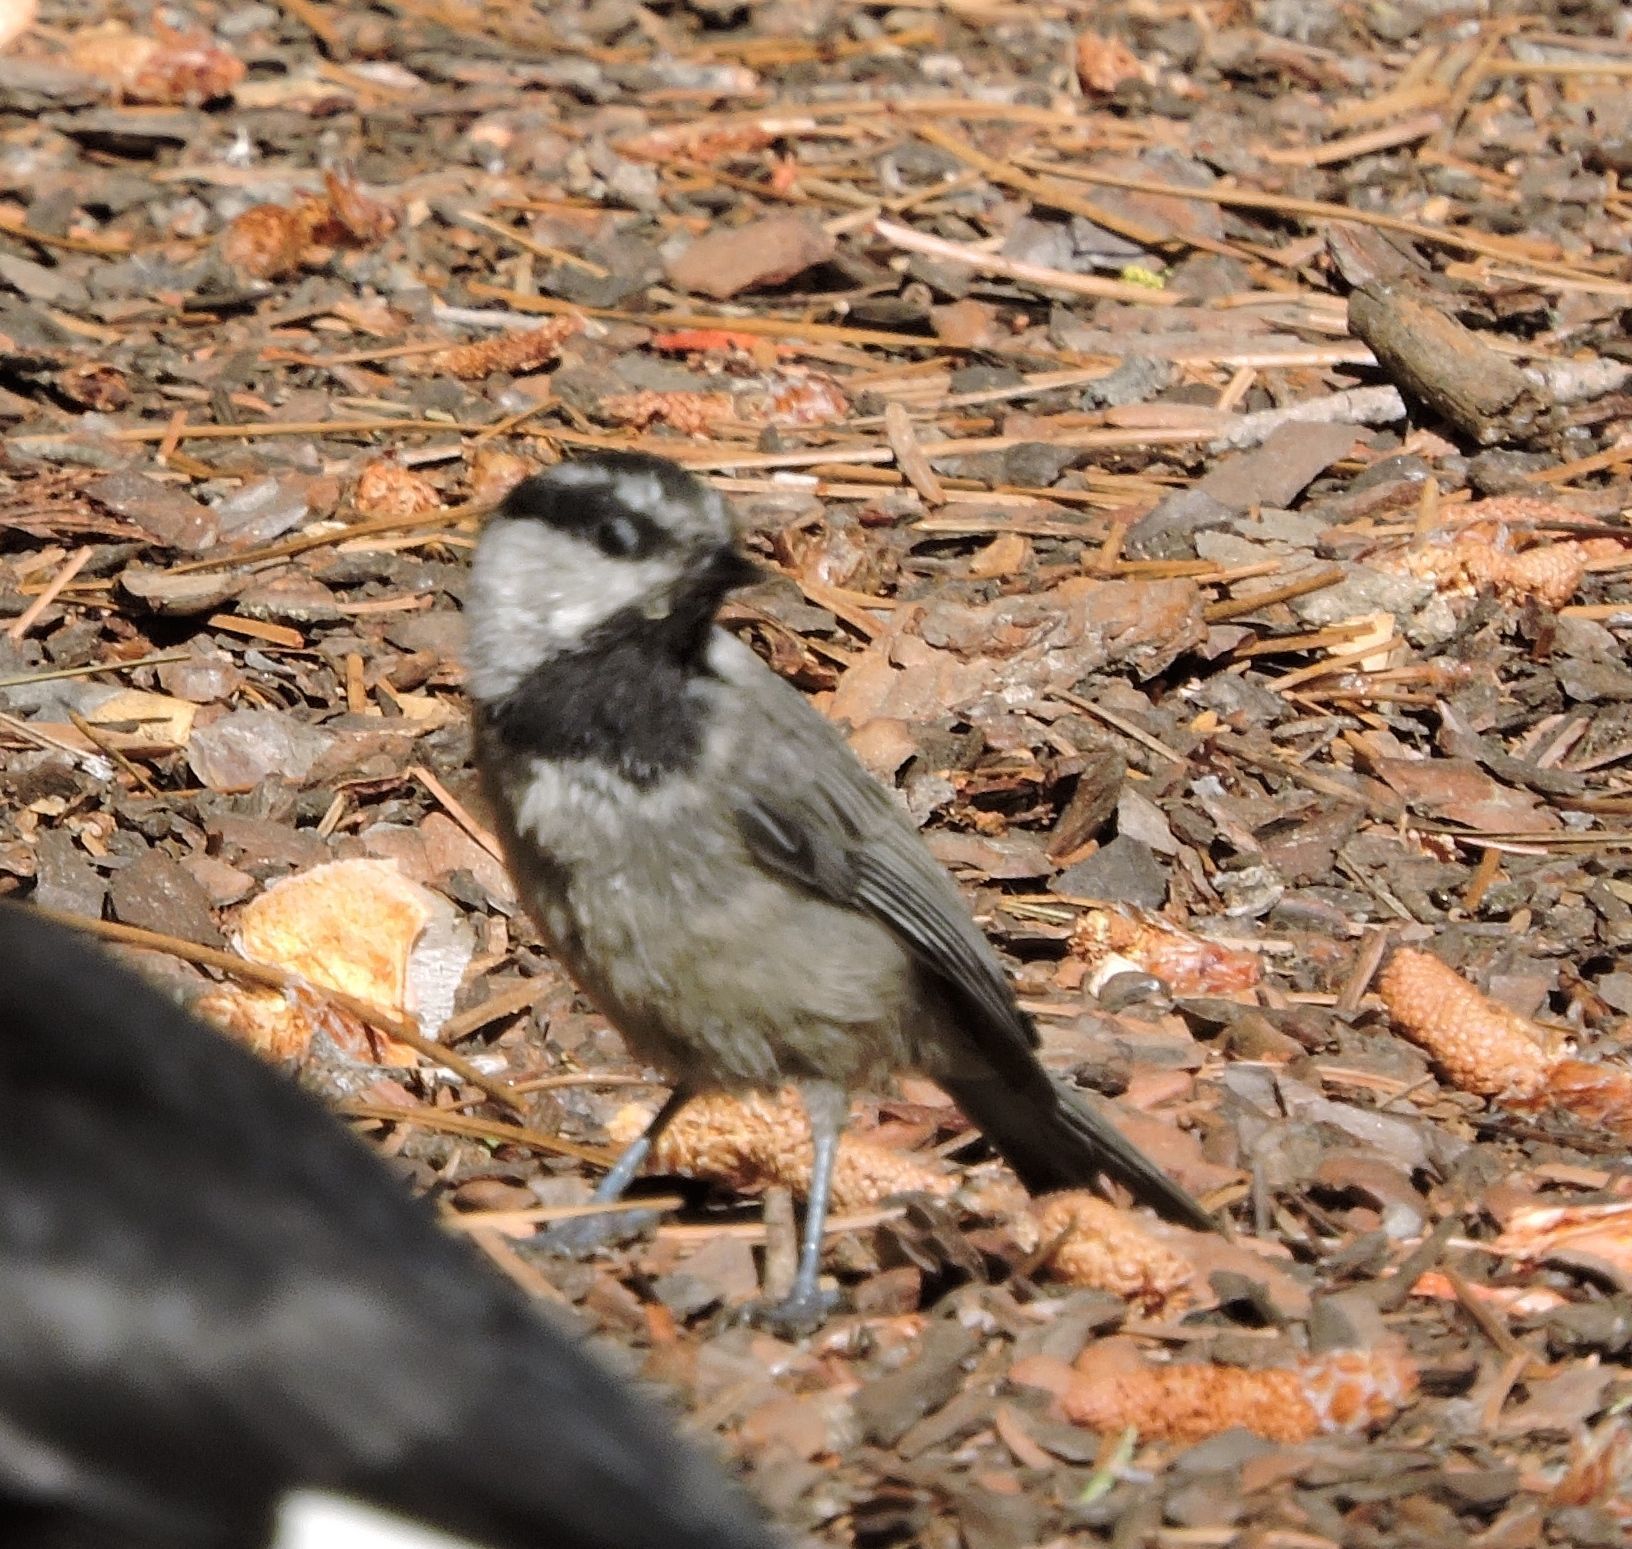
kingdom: Animalia
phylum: Chordata
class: Aves
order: Passeriformes
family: Paridae
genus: Poecile
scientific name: Poecile gambeli
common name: Mountain chickadee
